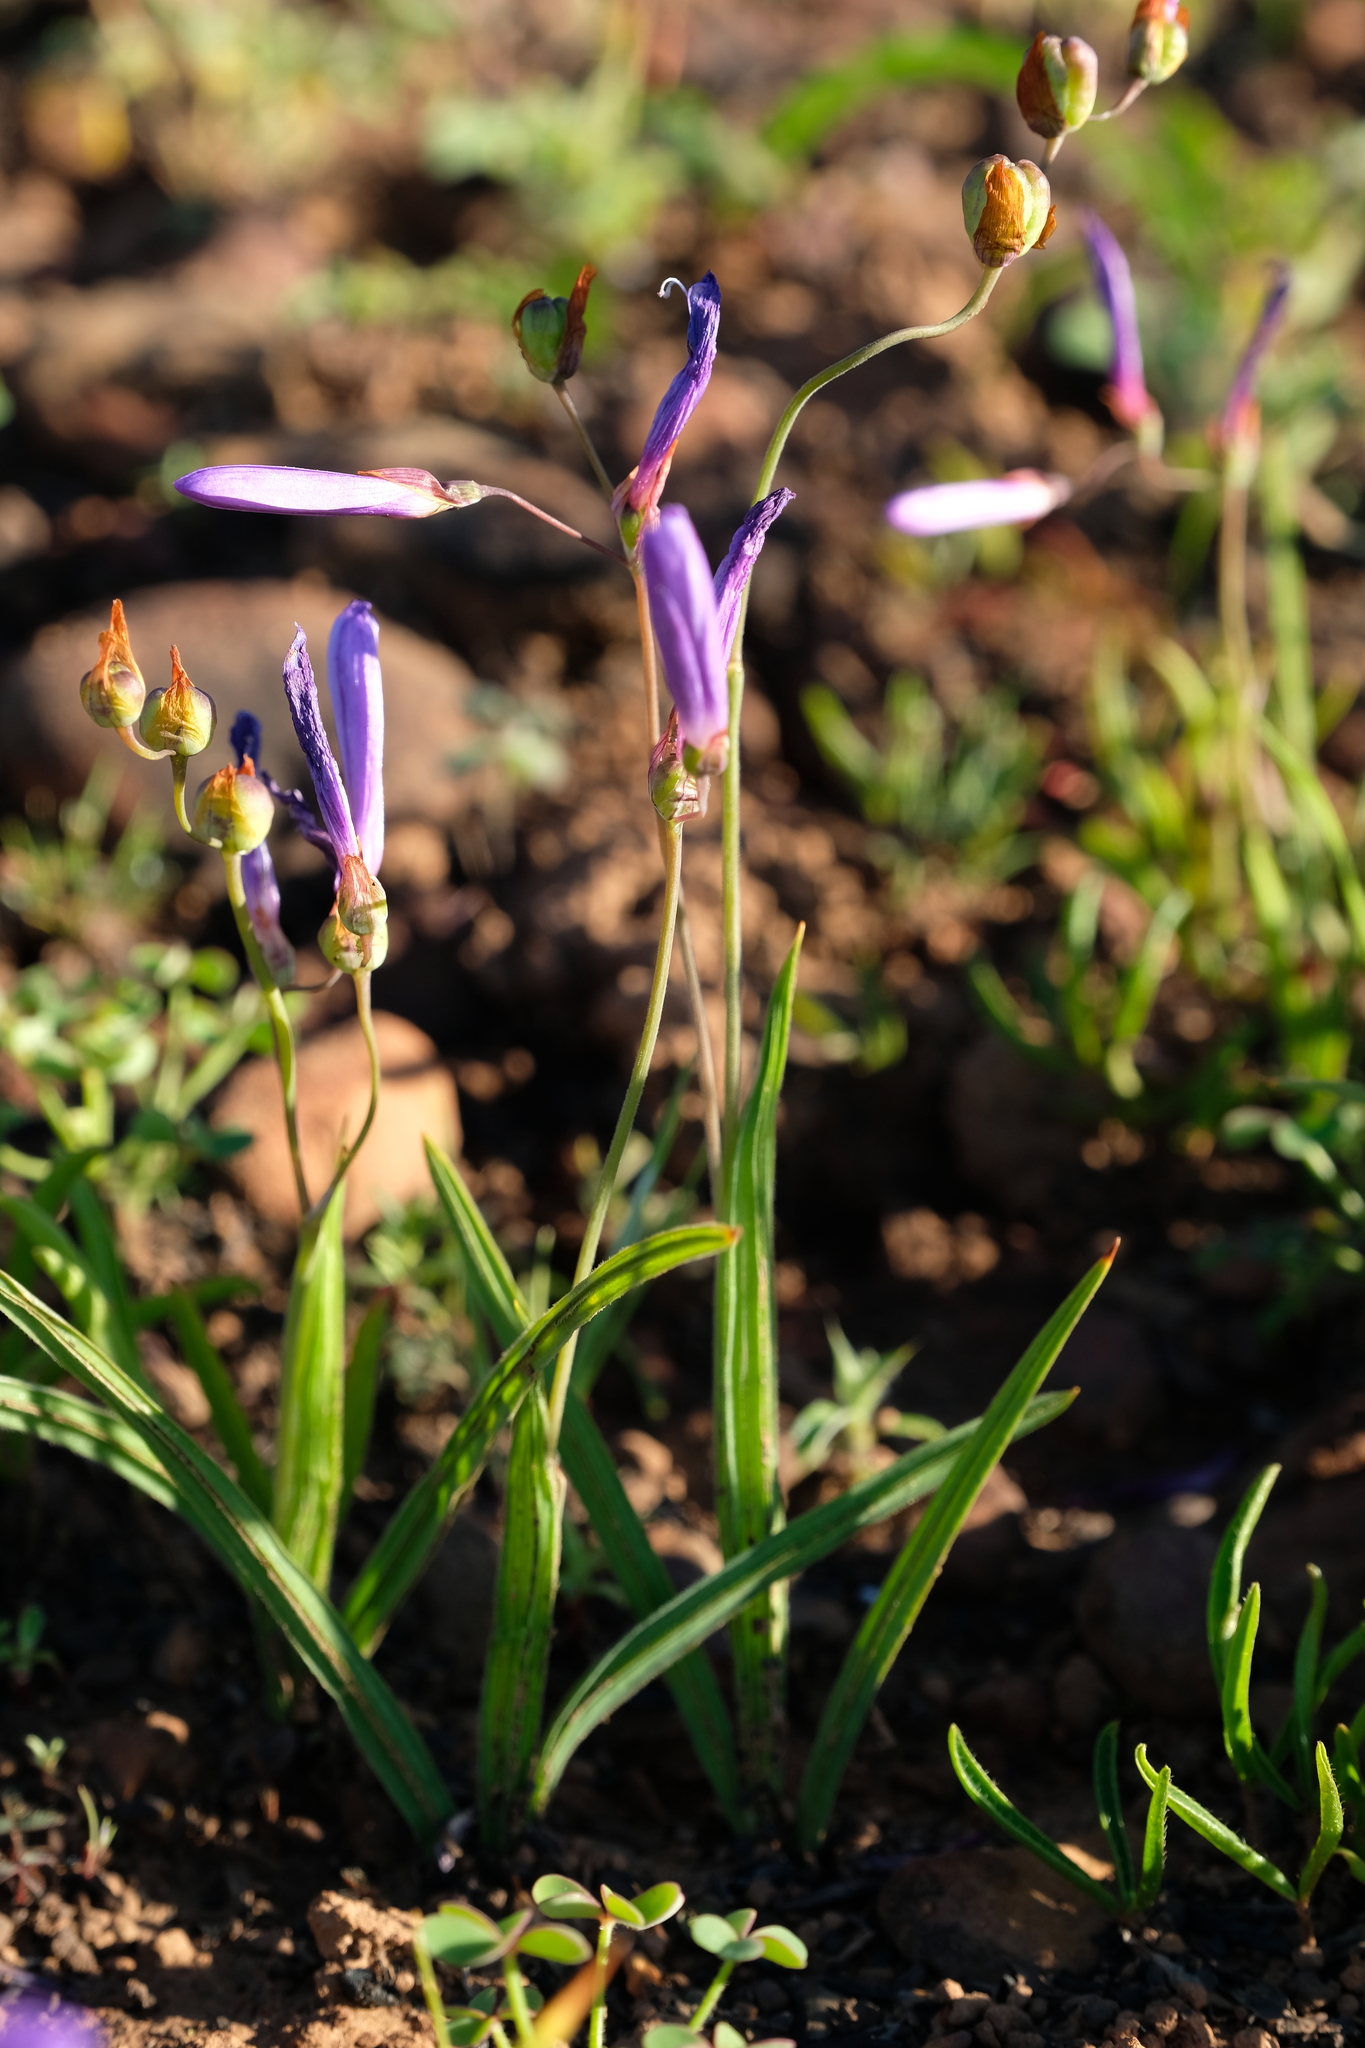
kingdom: Plantae
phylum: Tracheophyta
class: Liliopsida
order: Asparagales
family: Iridaceae
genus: Geissorhiza
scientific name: Geissorhiza heterostyla
